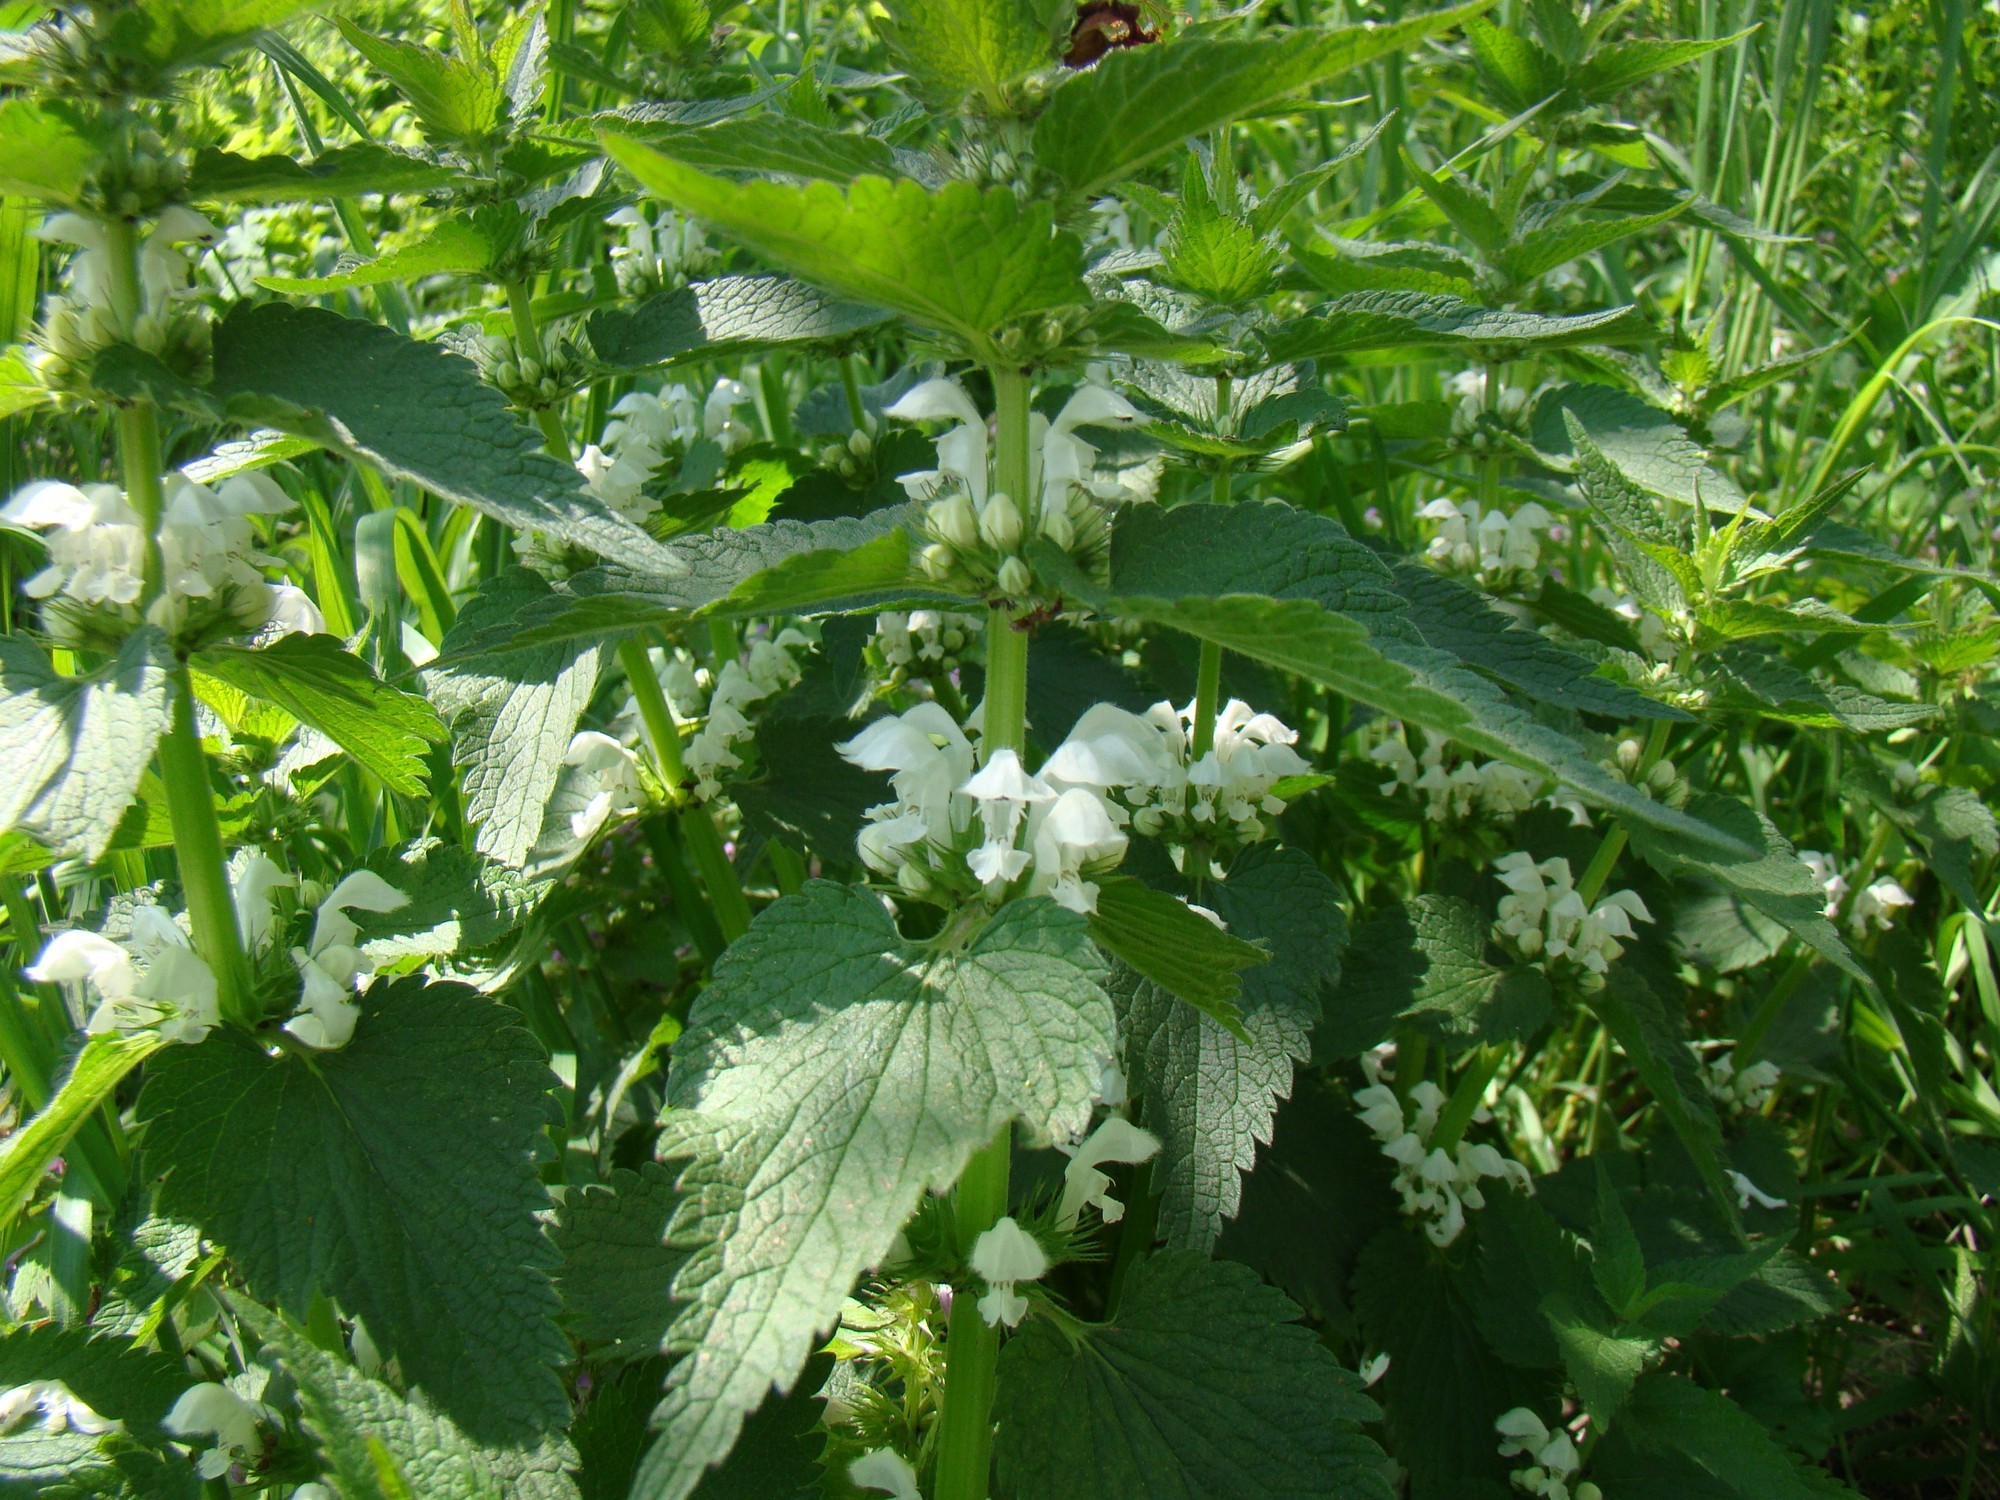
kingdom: Plantae
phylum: Tracheophyta
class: Magnoliopsida
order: Lamiales
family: Lamiaceae
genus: Lamium
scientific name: Lamium album
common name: White dead-nettle
